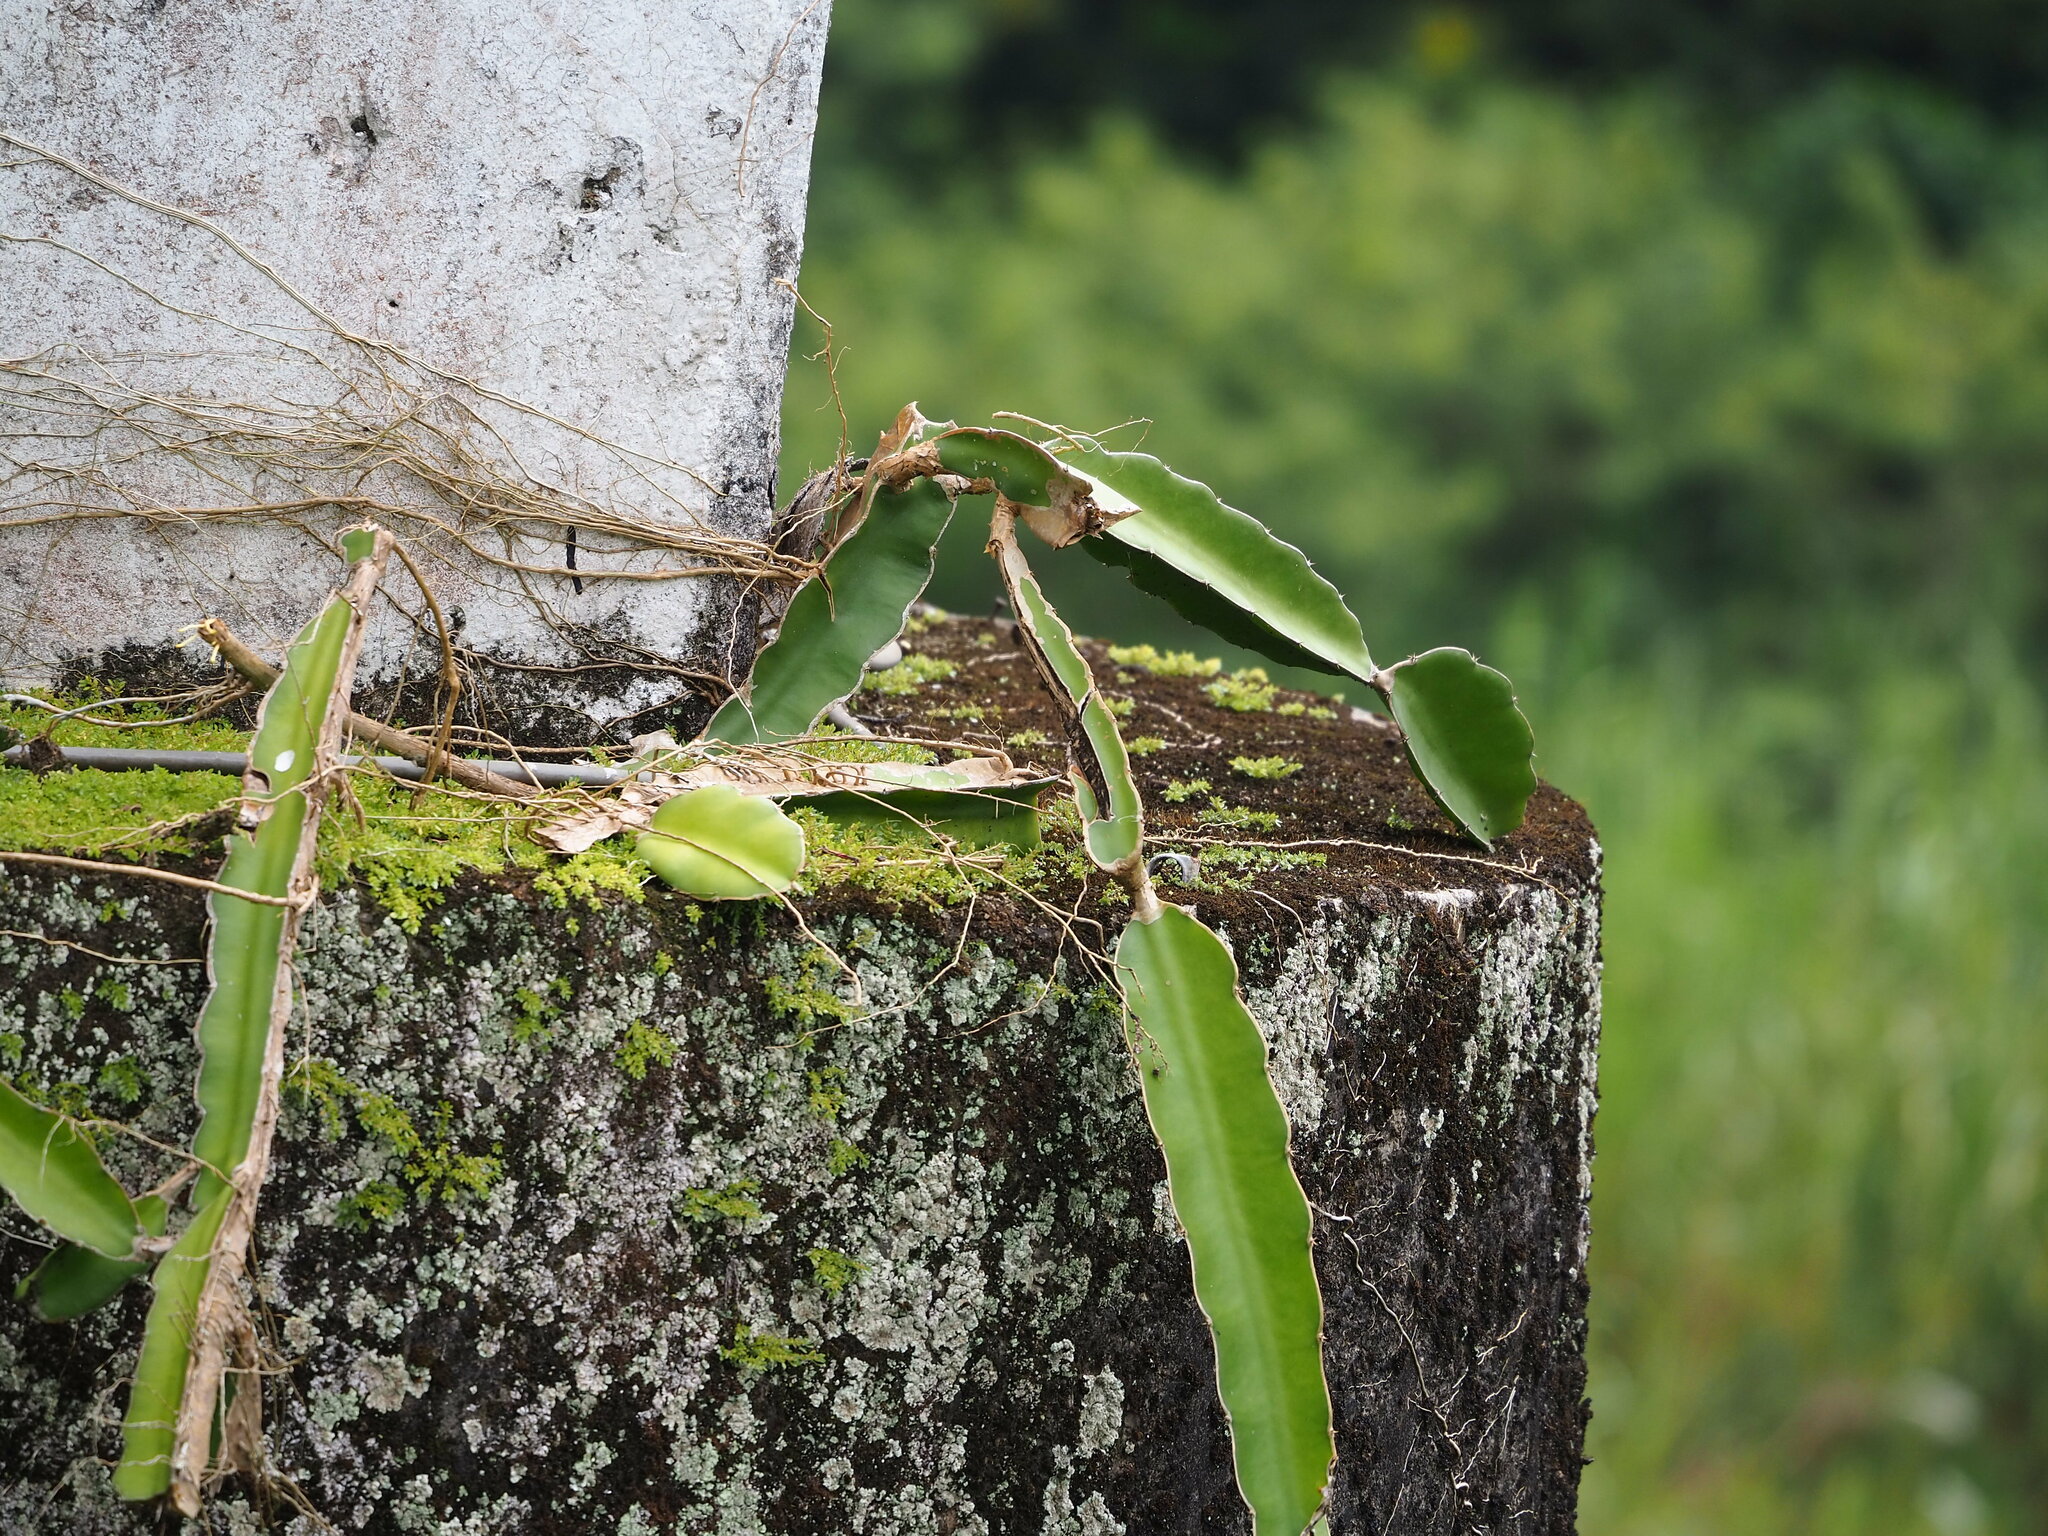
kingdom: Plantae
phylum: Tracheophyta
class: Magnoliopsida
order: Caryophyllales
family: Cactaceae
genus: Selenicereus
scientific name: Selenicereus undatus
